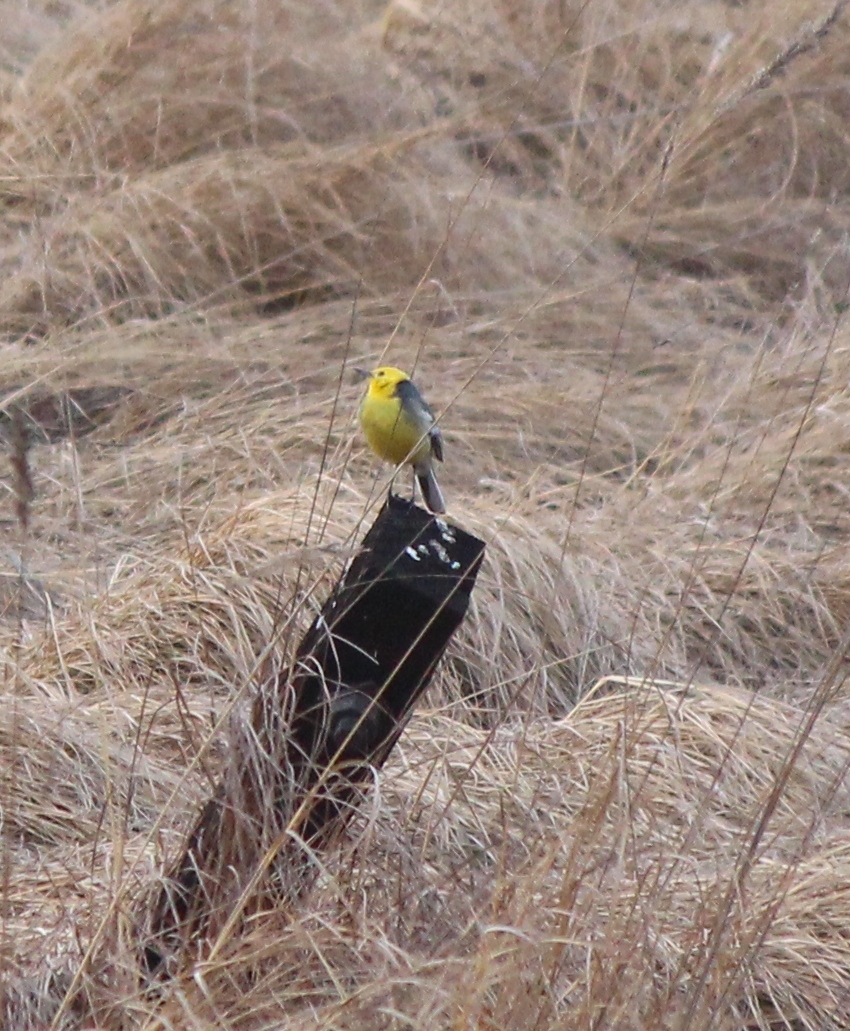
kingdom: Animalia
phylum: Chordata
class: Aves
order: Passeriformes
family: Motacillidae
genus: Motacilla
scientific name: Motacilla citreola
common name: Citrine wagtail
